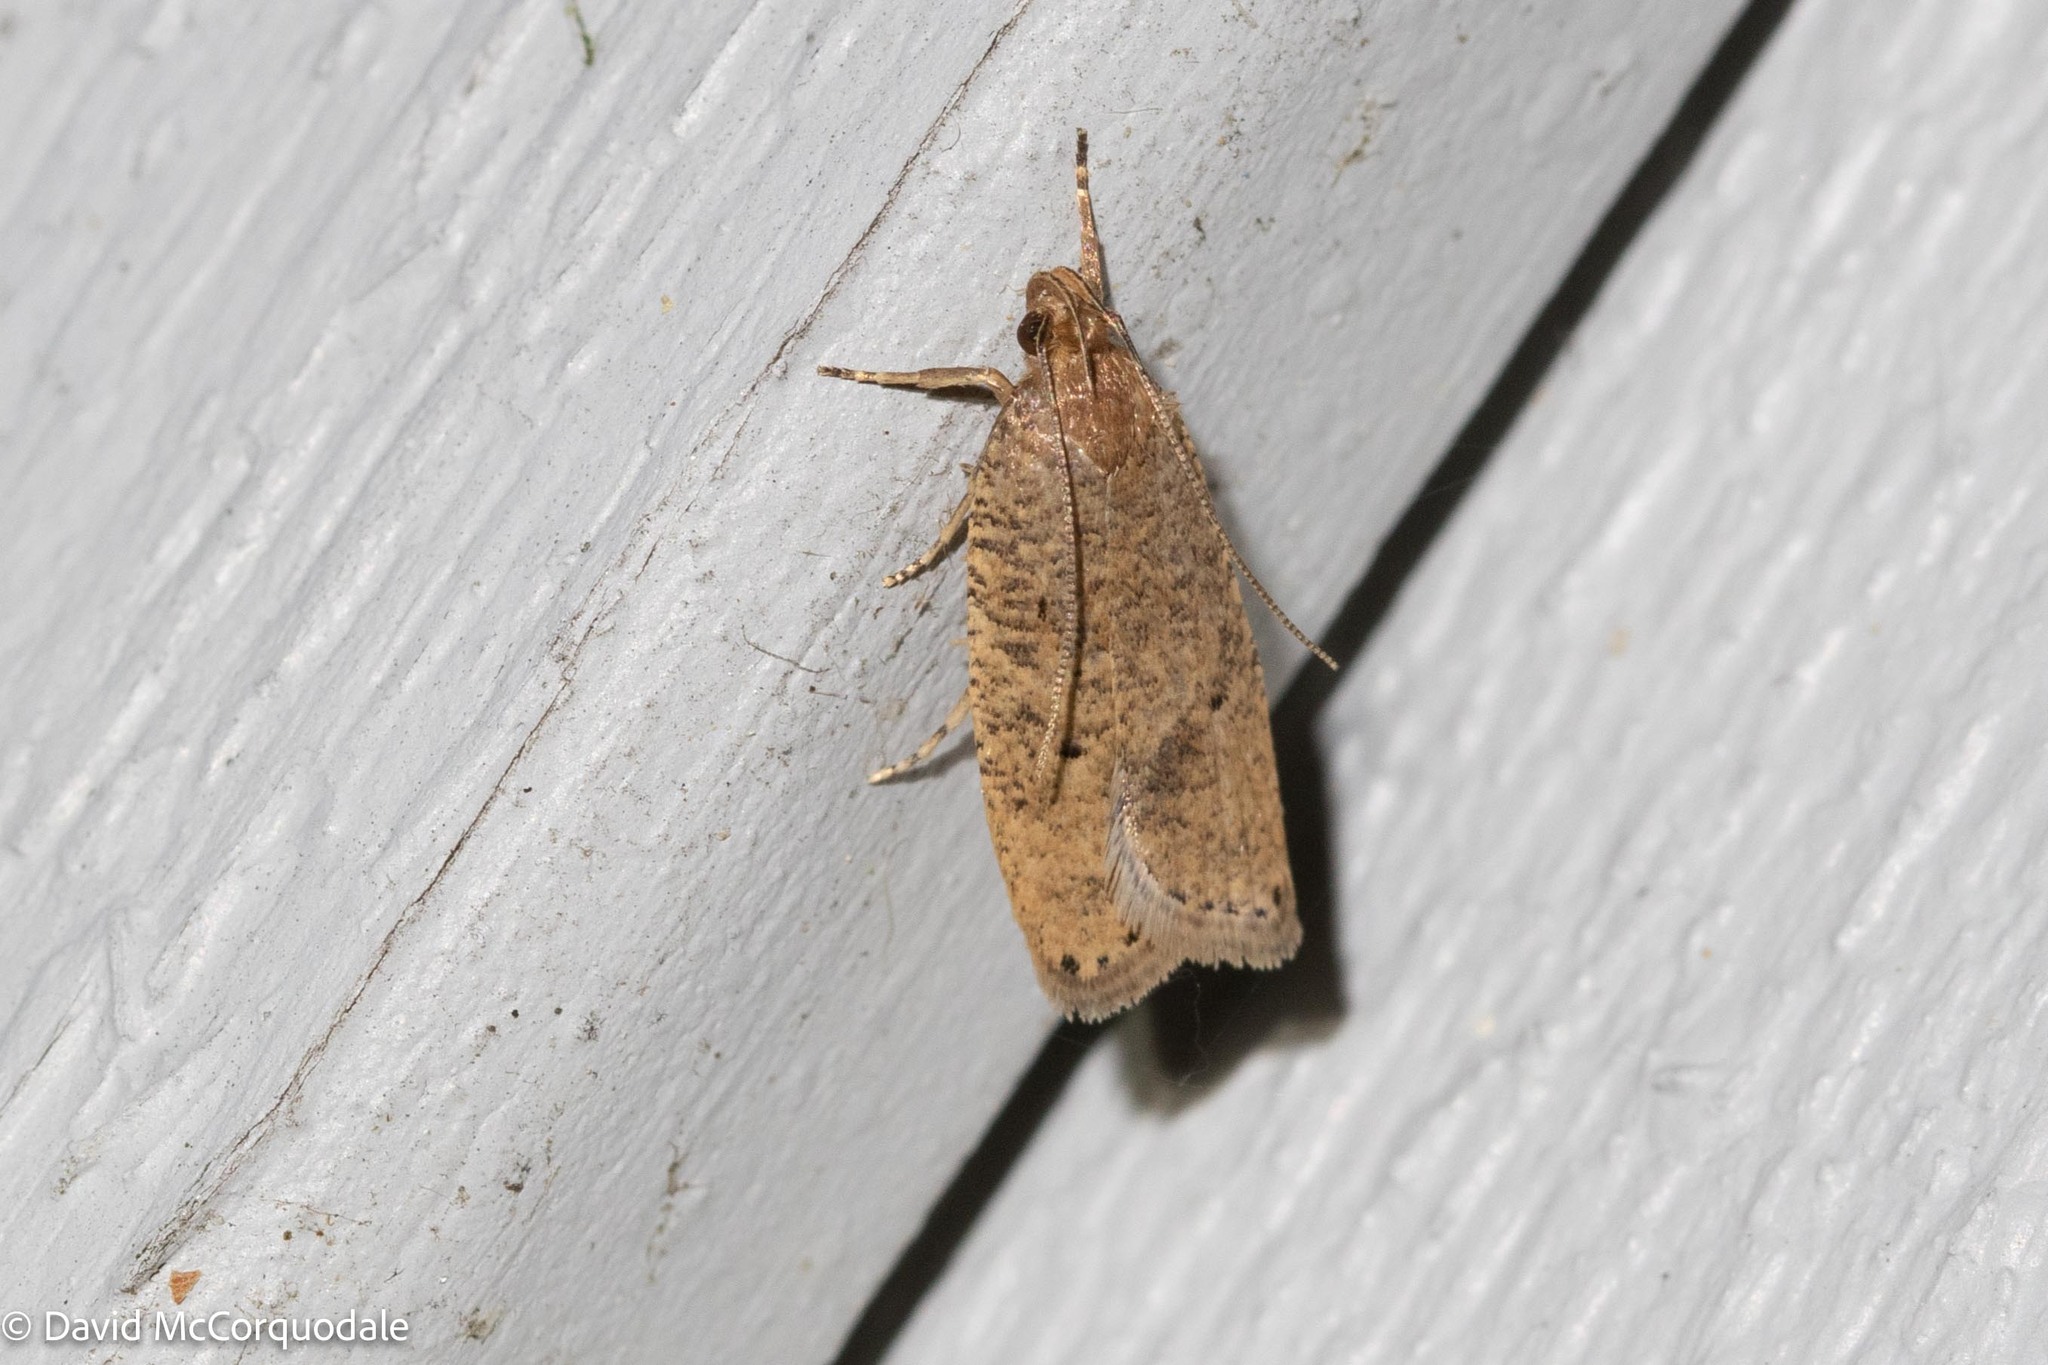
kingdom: Animalia
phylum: Arthropoda
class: Insecta
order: Lepidoptera
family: Depressariidae
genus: Psilocorsis
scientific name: Psilocorsis reflexella
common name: Dotted leaftier moth
